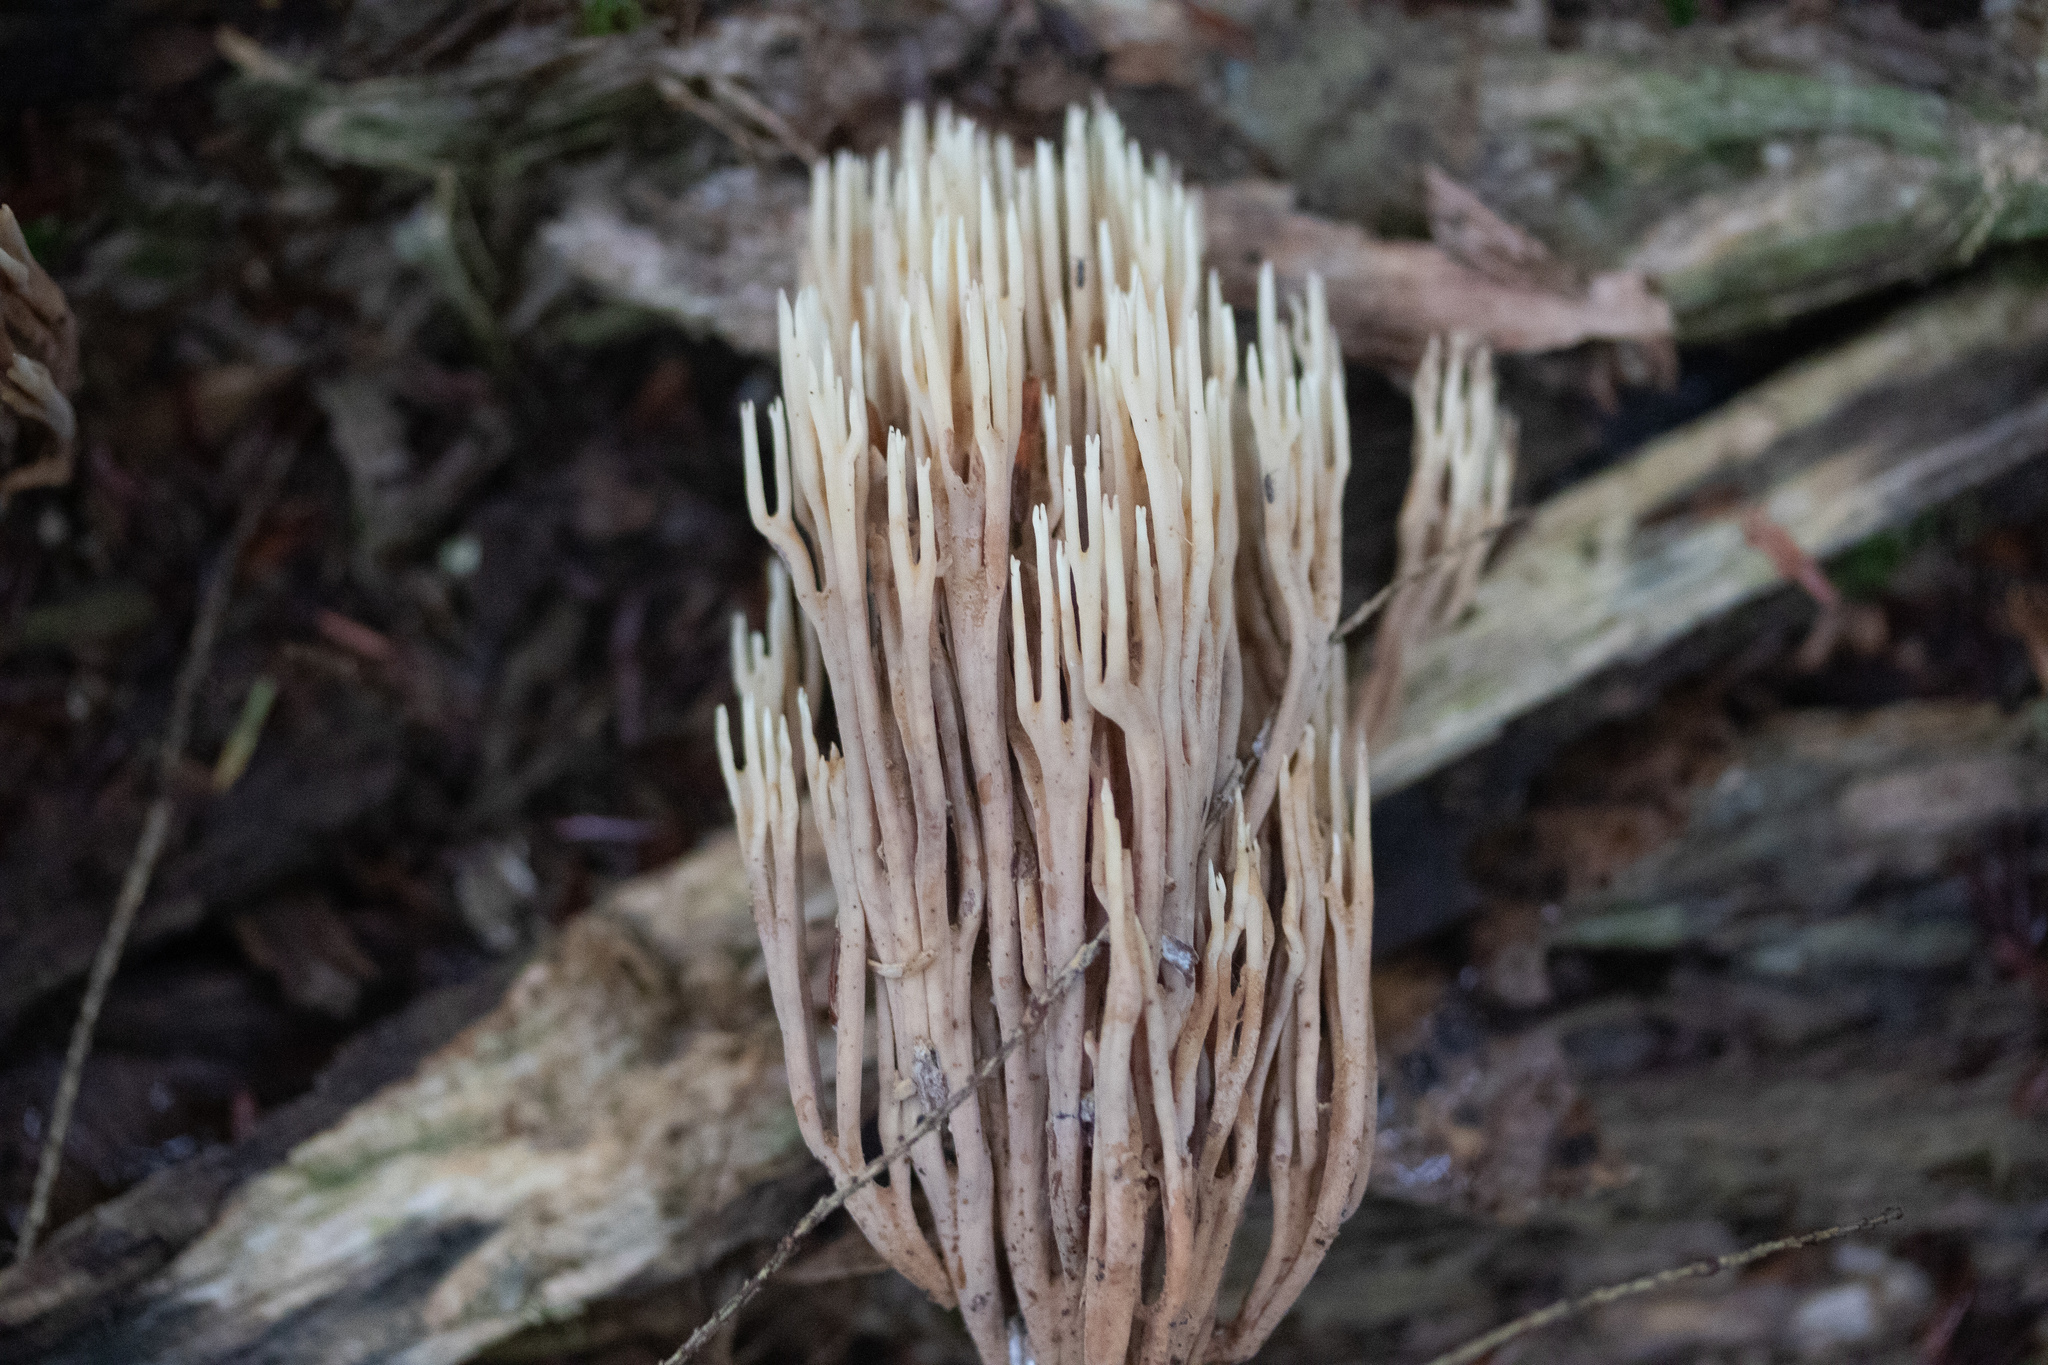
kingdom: Fungi
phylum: Basidiomycota
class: Agaricomycetes
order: Gomphales
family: Gomphaceae
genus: Ramaria
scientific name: Ramaria stricta
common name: Upright coral
